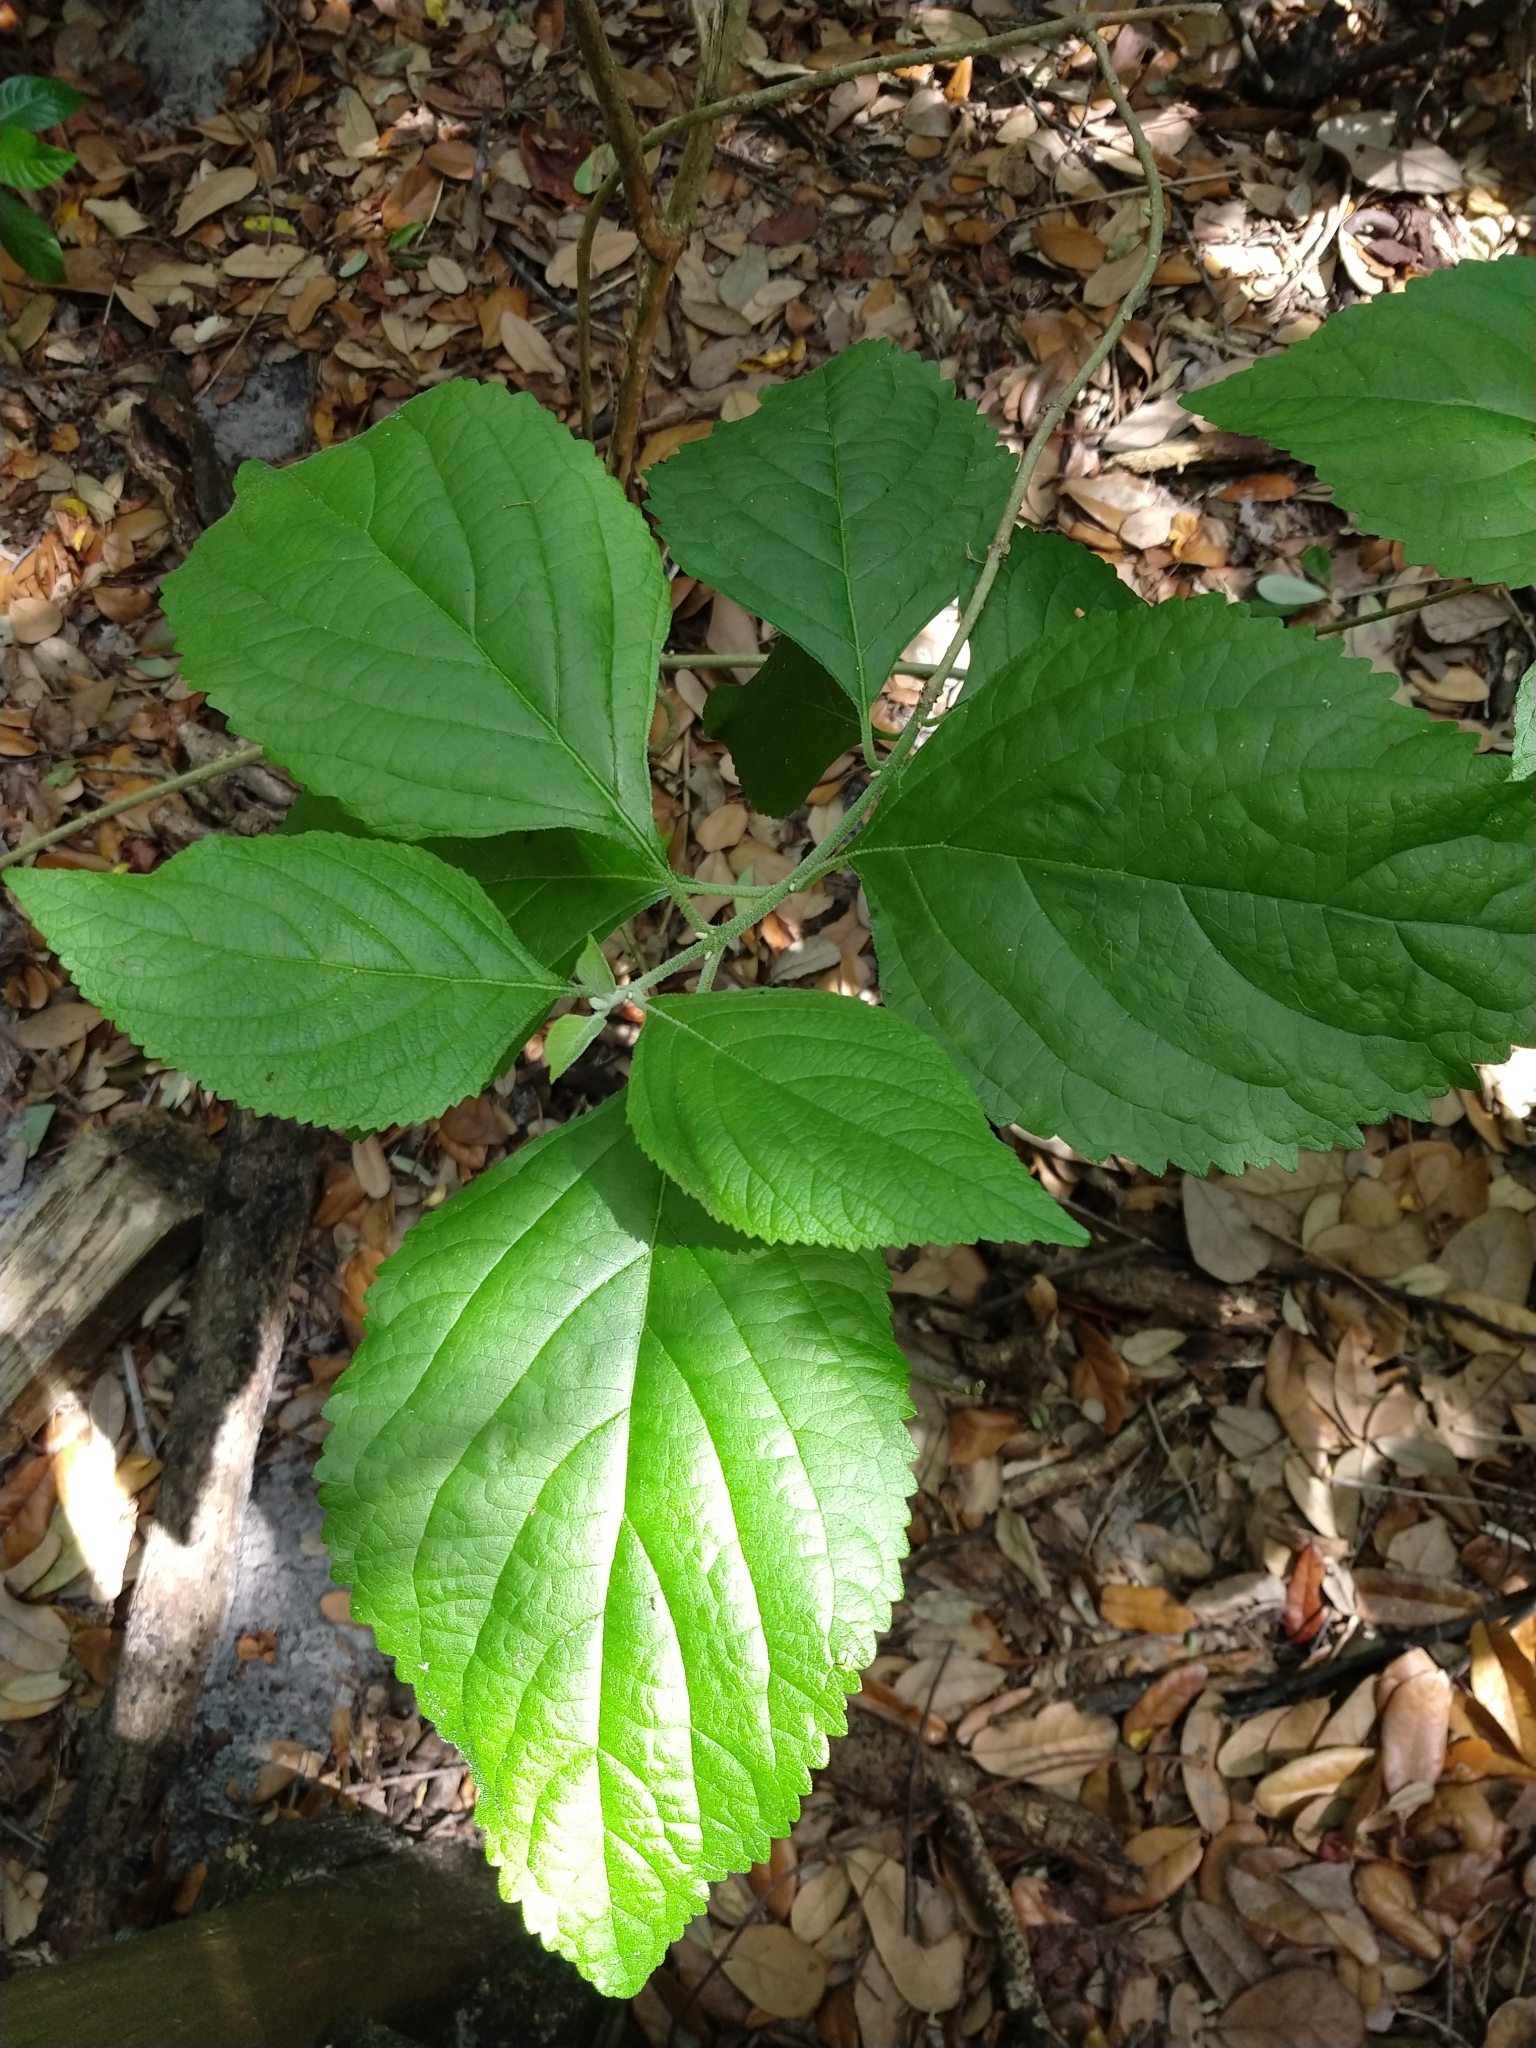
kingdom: Plantae
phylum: Tracheophyta
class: Magnoliopsida
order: Lamiales
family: Lamiaceae
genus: Callicarpa
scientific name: Callicarpa americana
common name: American beautyberry
